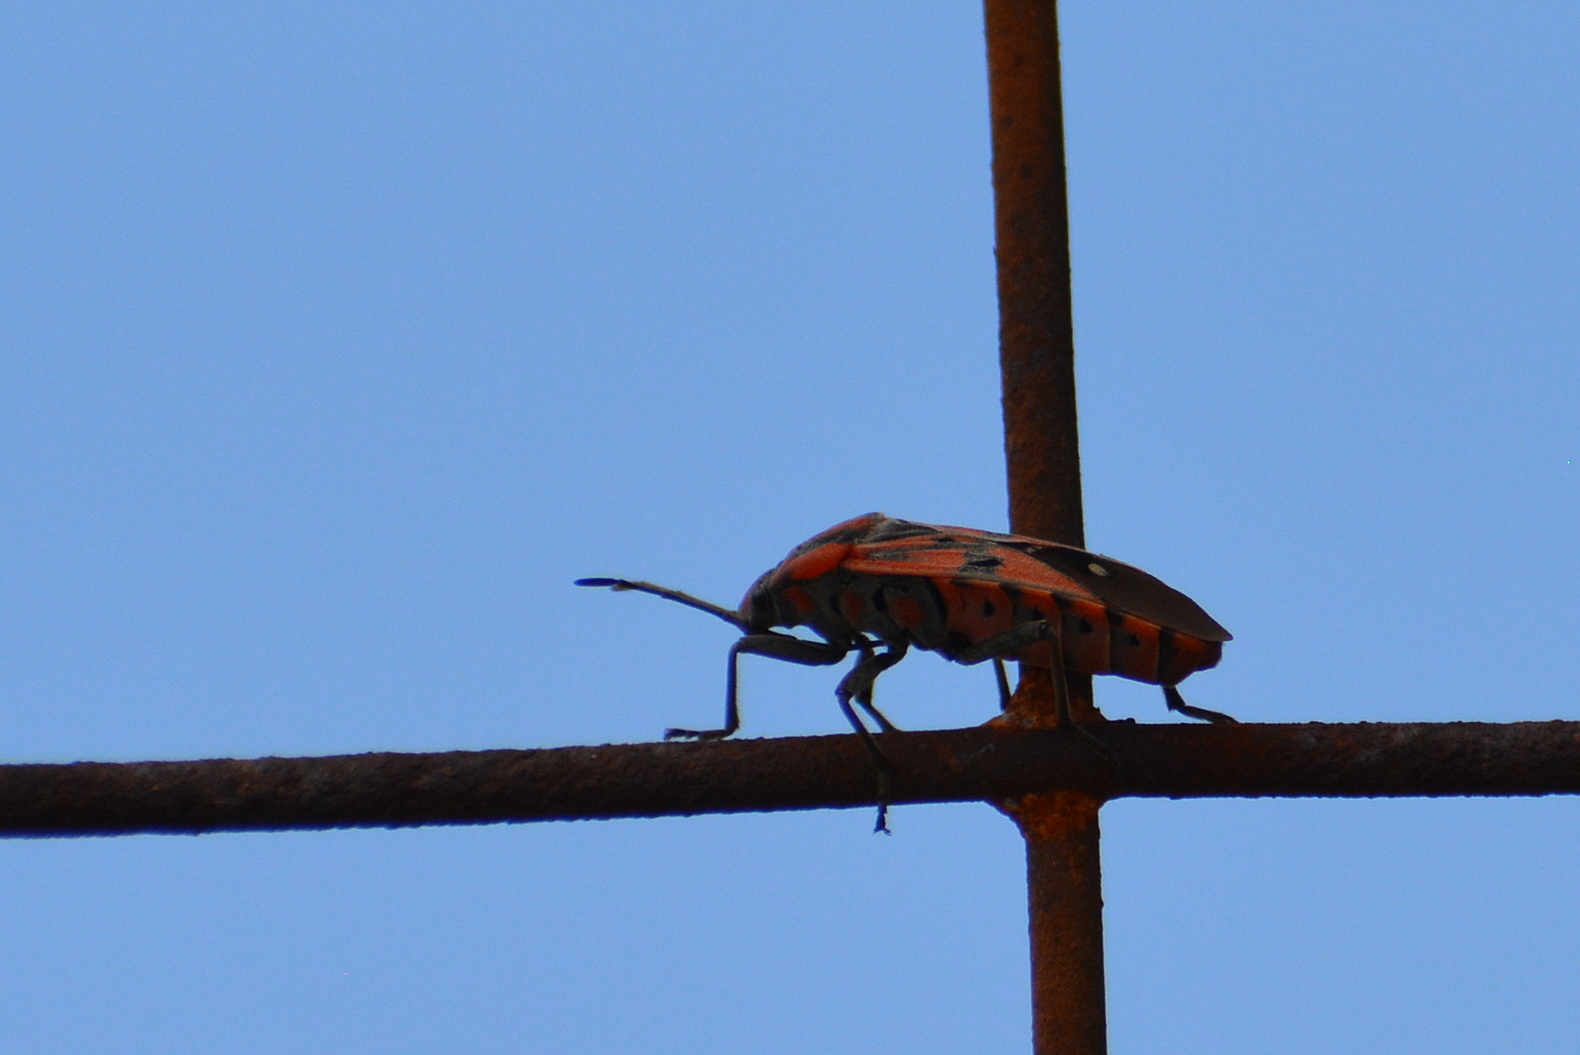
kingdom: Animalia
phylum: Arthropoda
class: Insecta
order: Hemiptera
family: Lygaeidae
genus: Spilostethus
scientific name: Spilostethus pandurus
